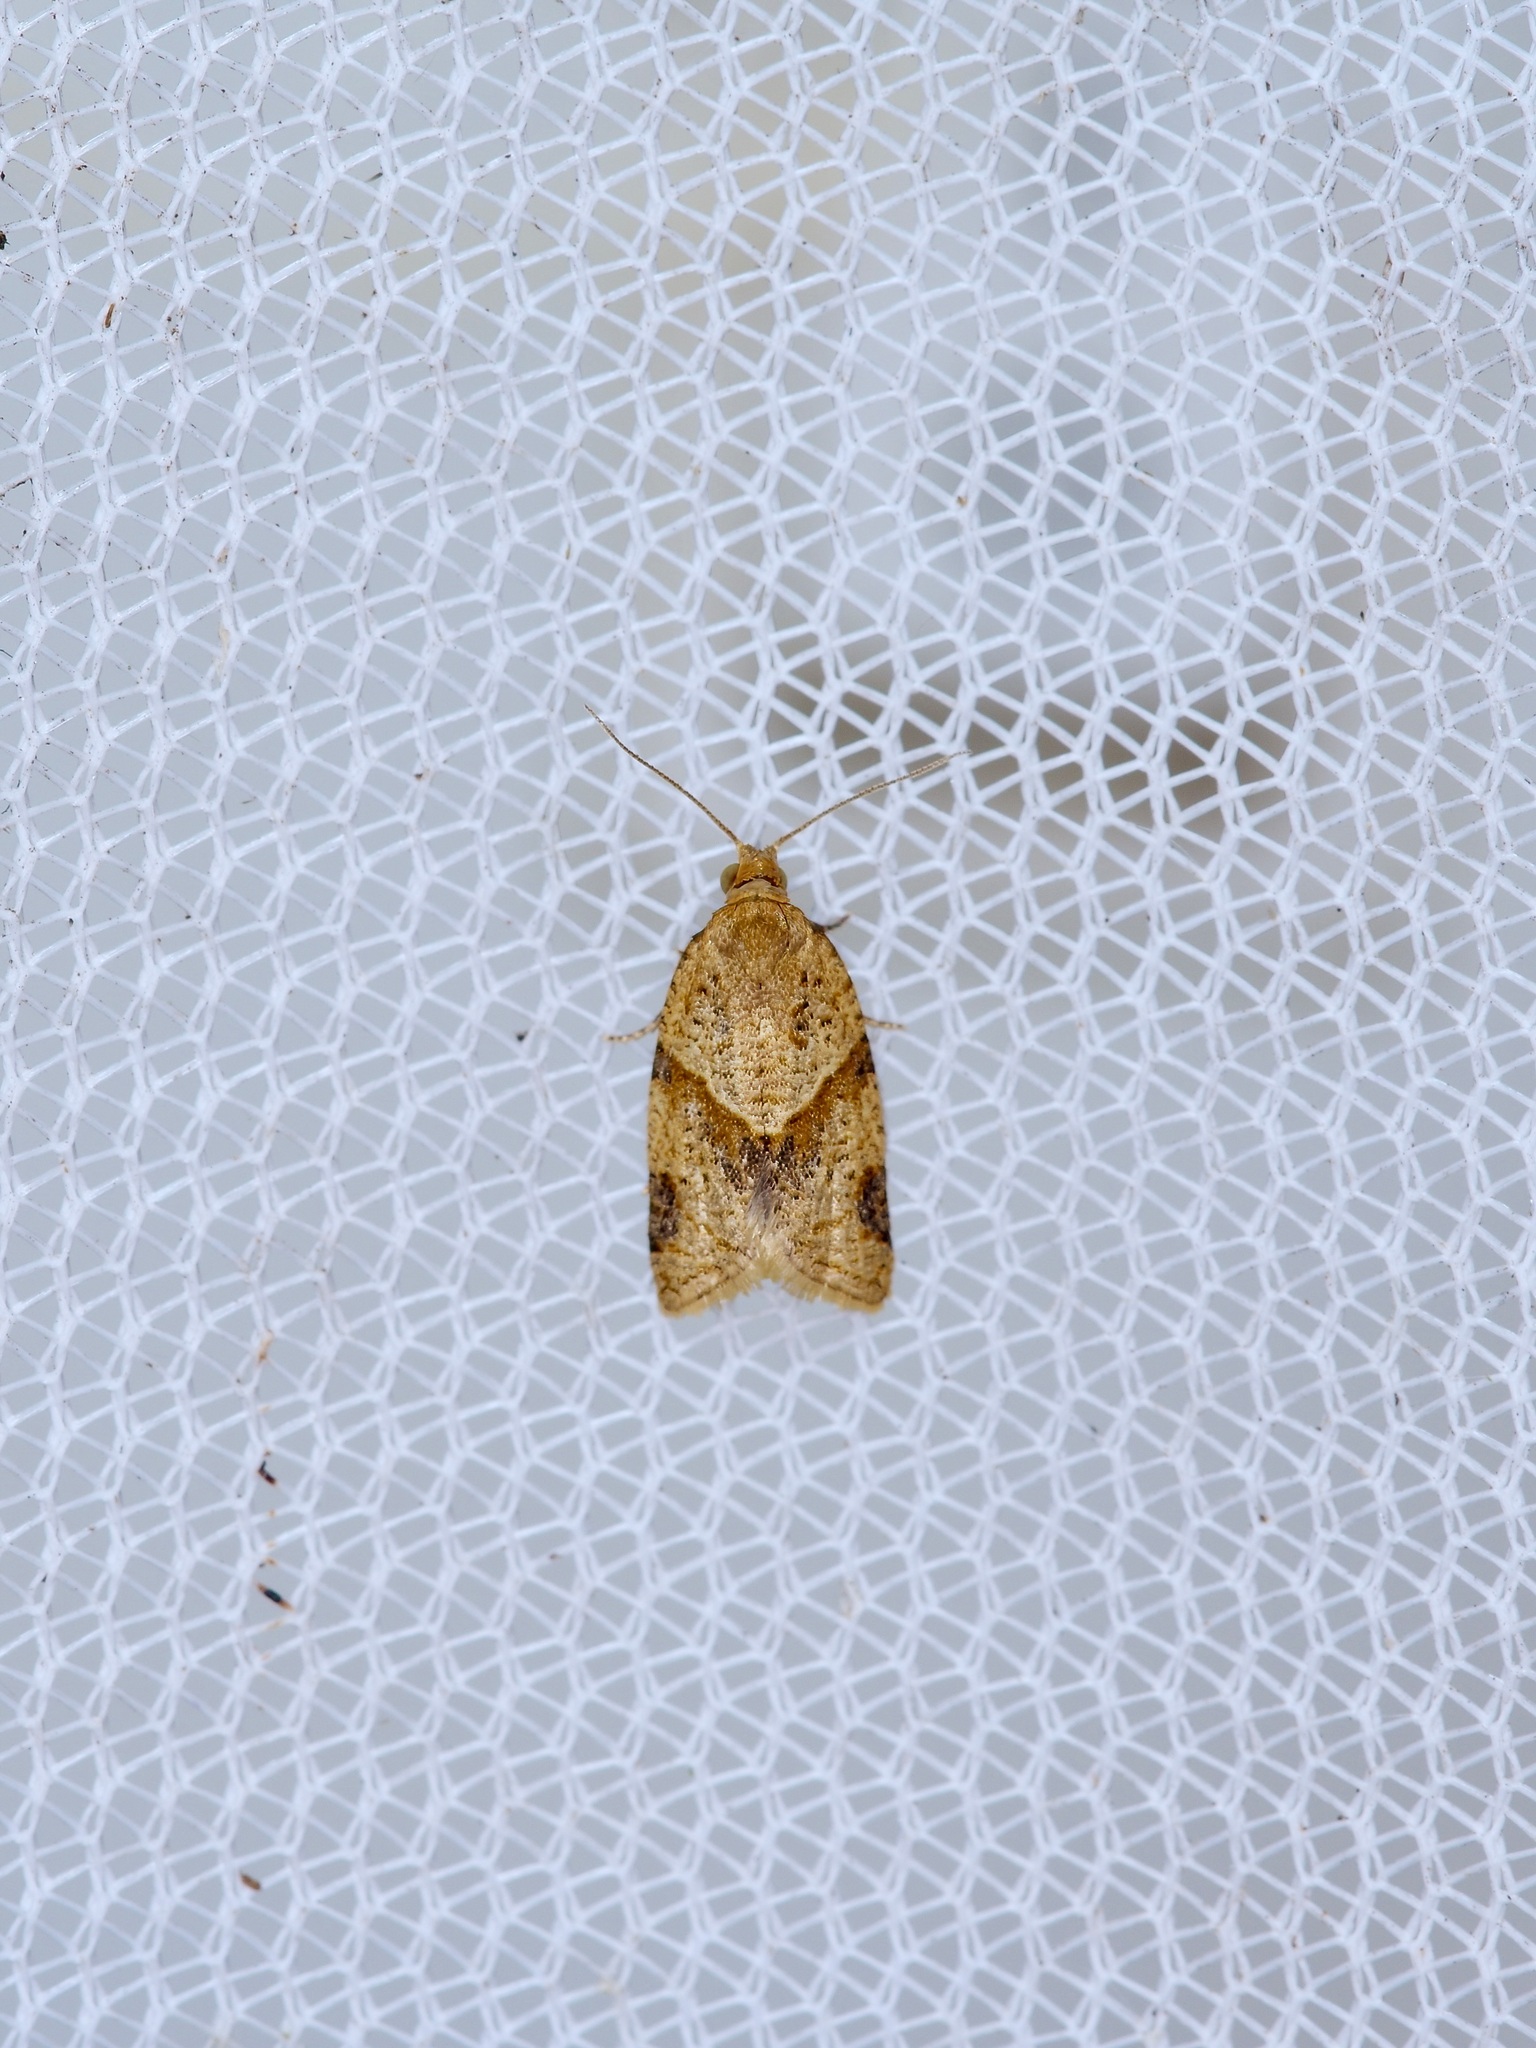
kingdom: Animalia
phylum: Arthropoda
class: Insecta
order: Lepidoptera
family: Tortricidae
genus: Clepsis
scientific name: Clepsis peritana
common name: Garden tortrix
